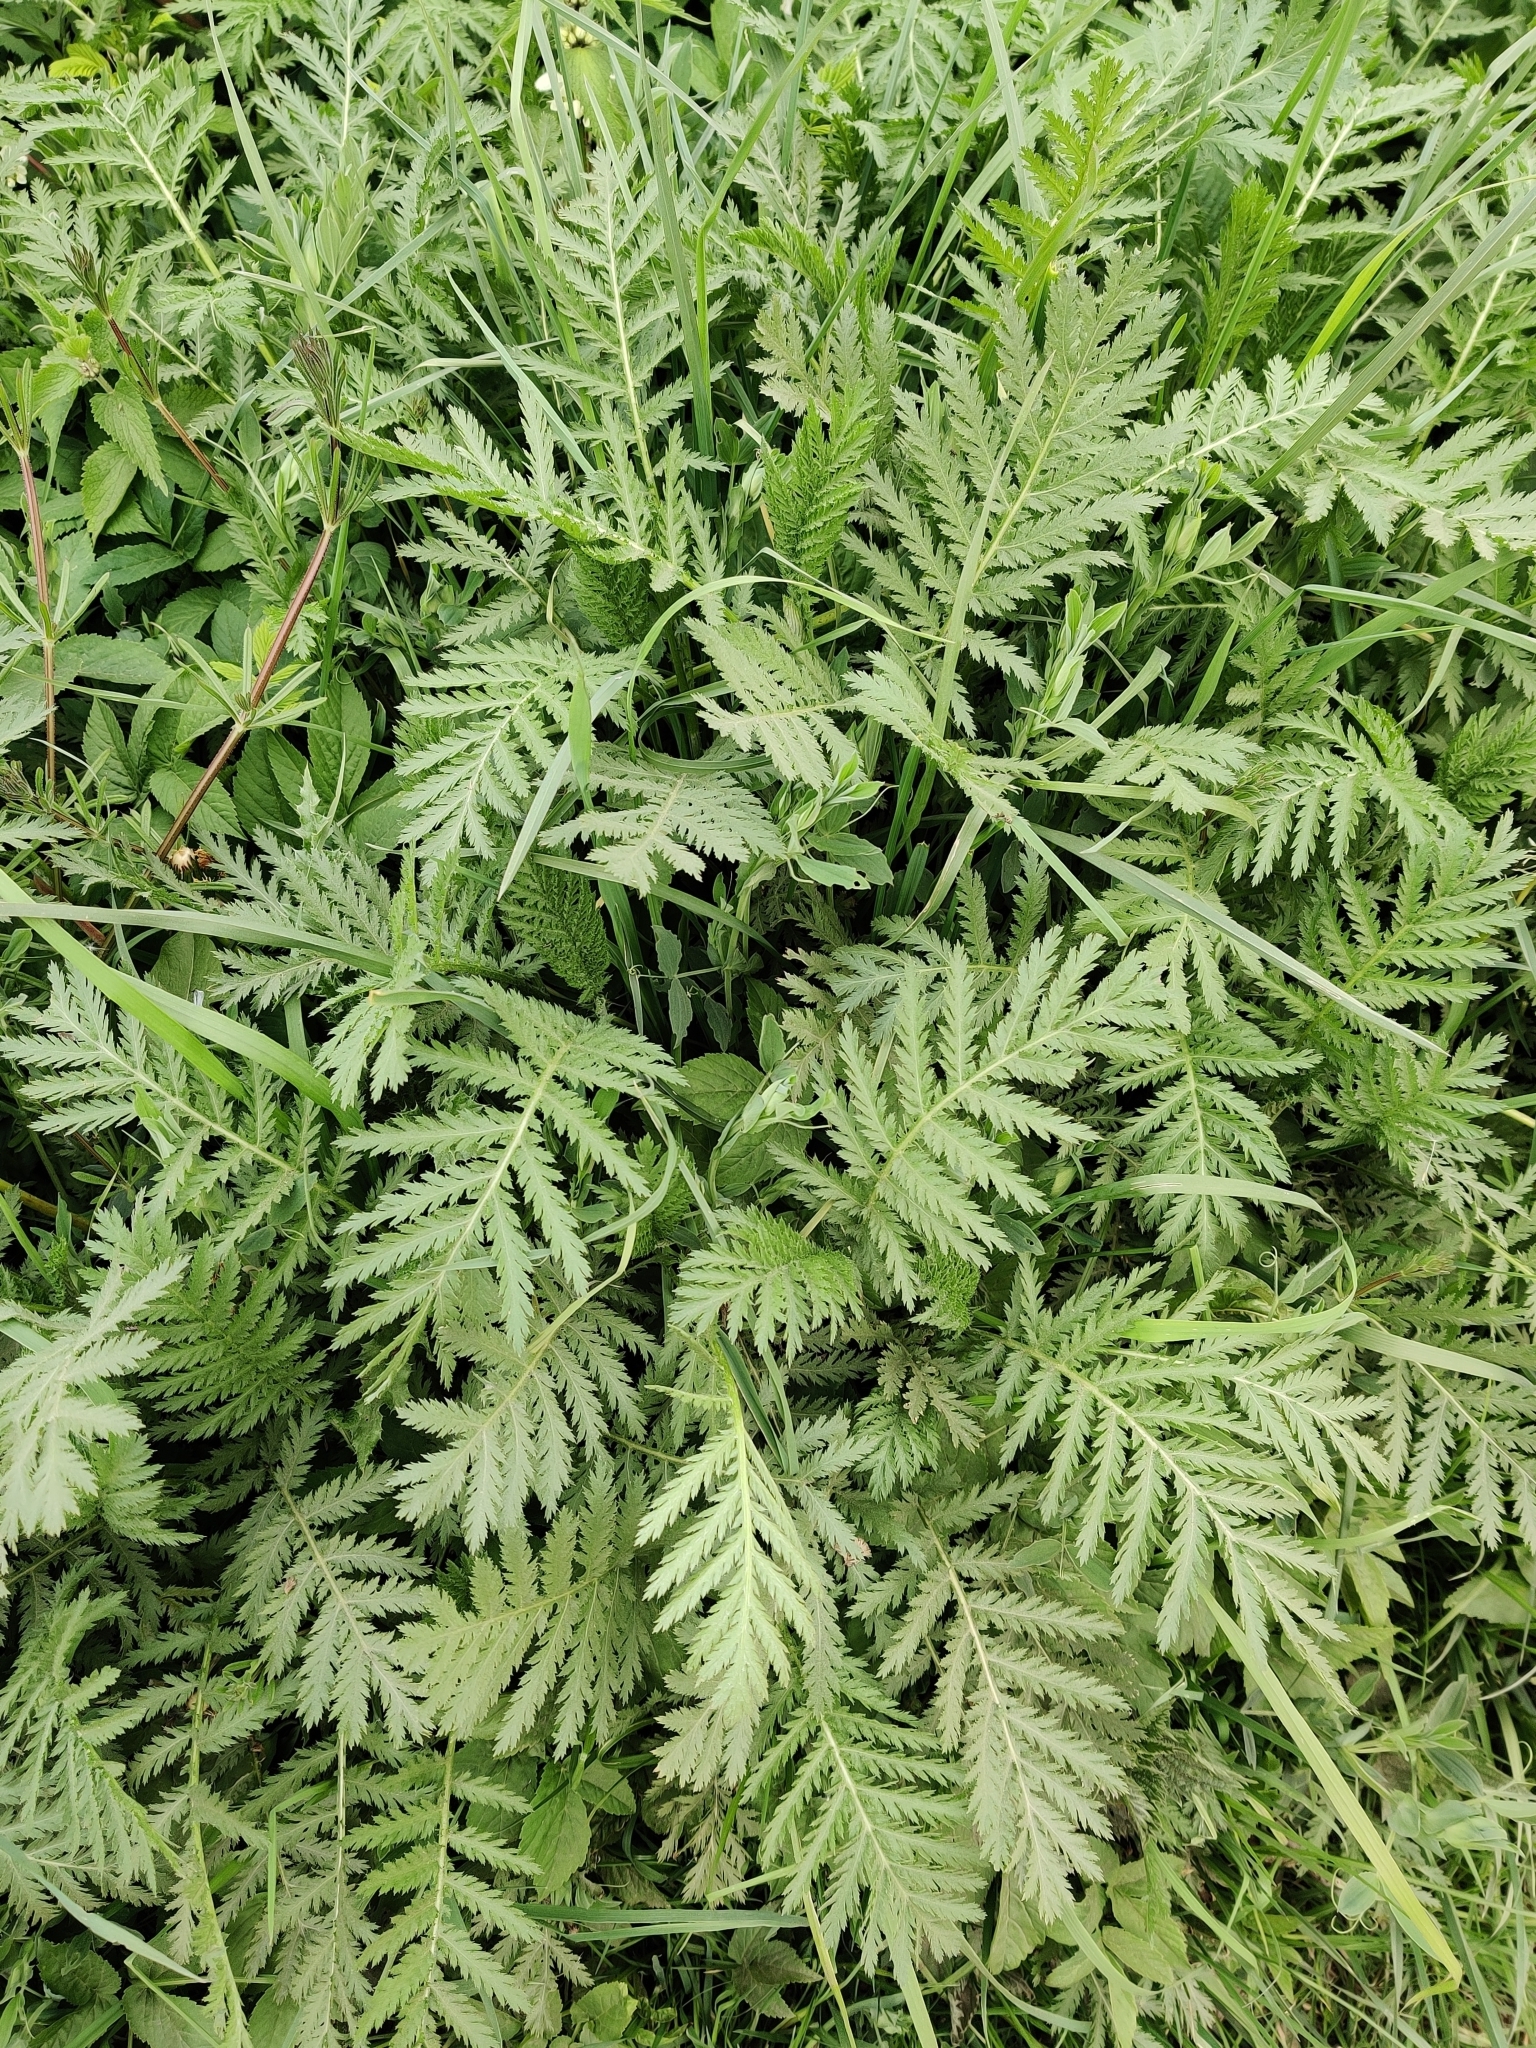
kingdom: Plantae
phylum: Tracheophyta
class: Magnoliopsida
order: Asterales
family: Asteraceae
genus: Tanacetum
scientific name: Tanacetum vulgare
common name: Common tansy
